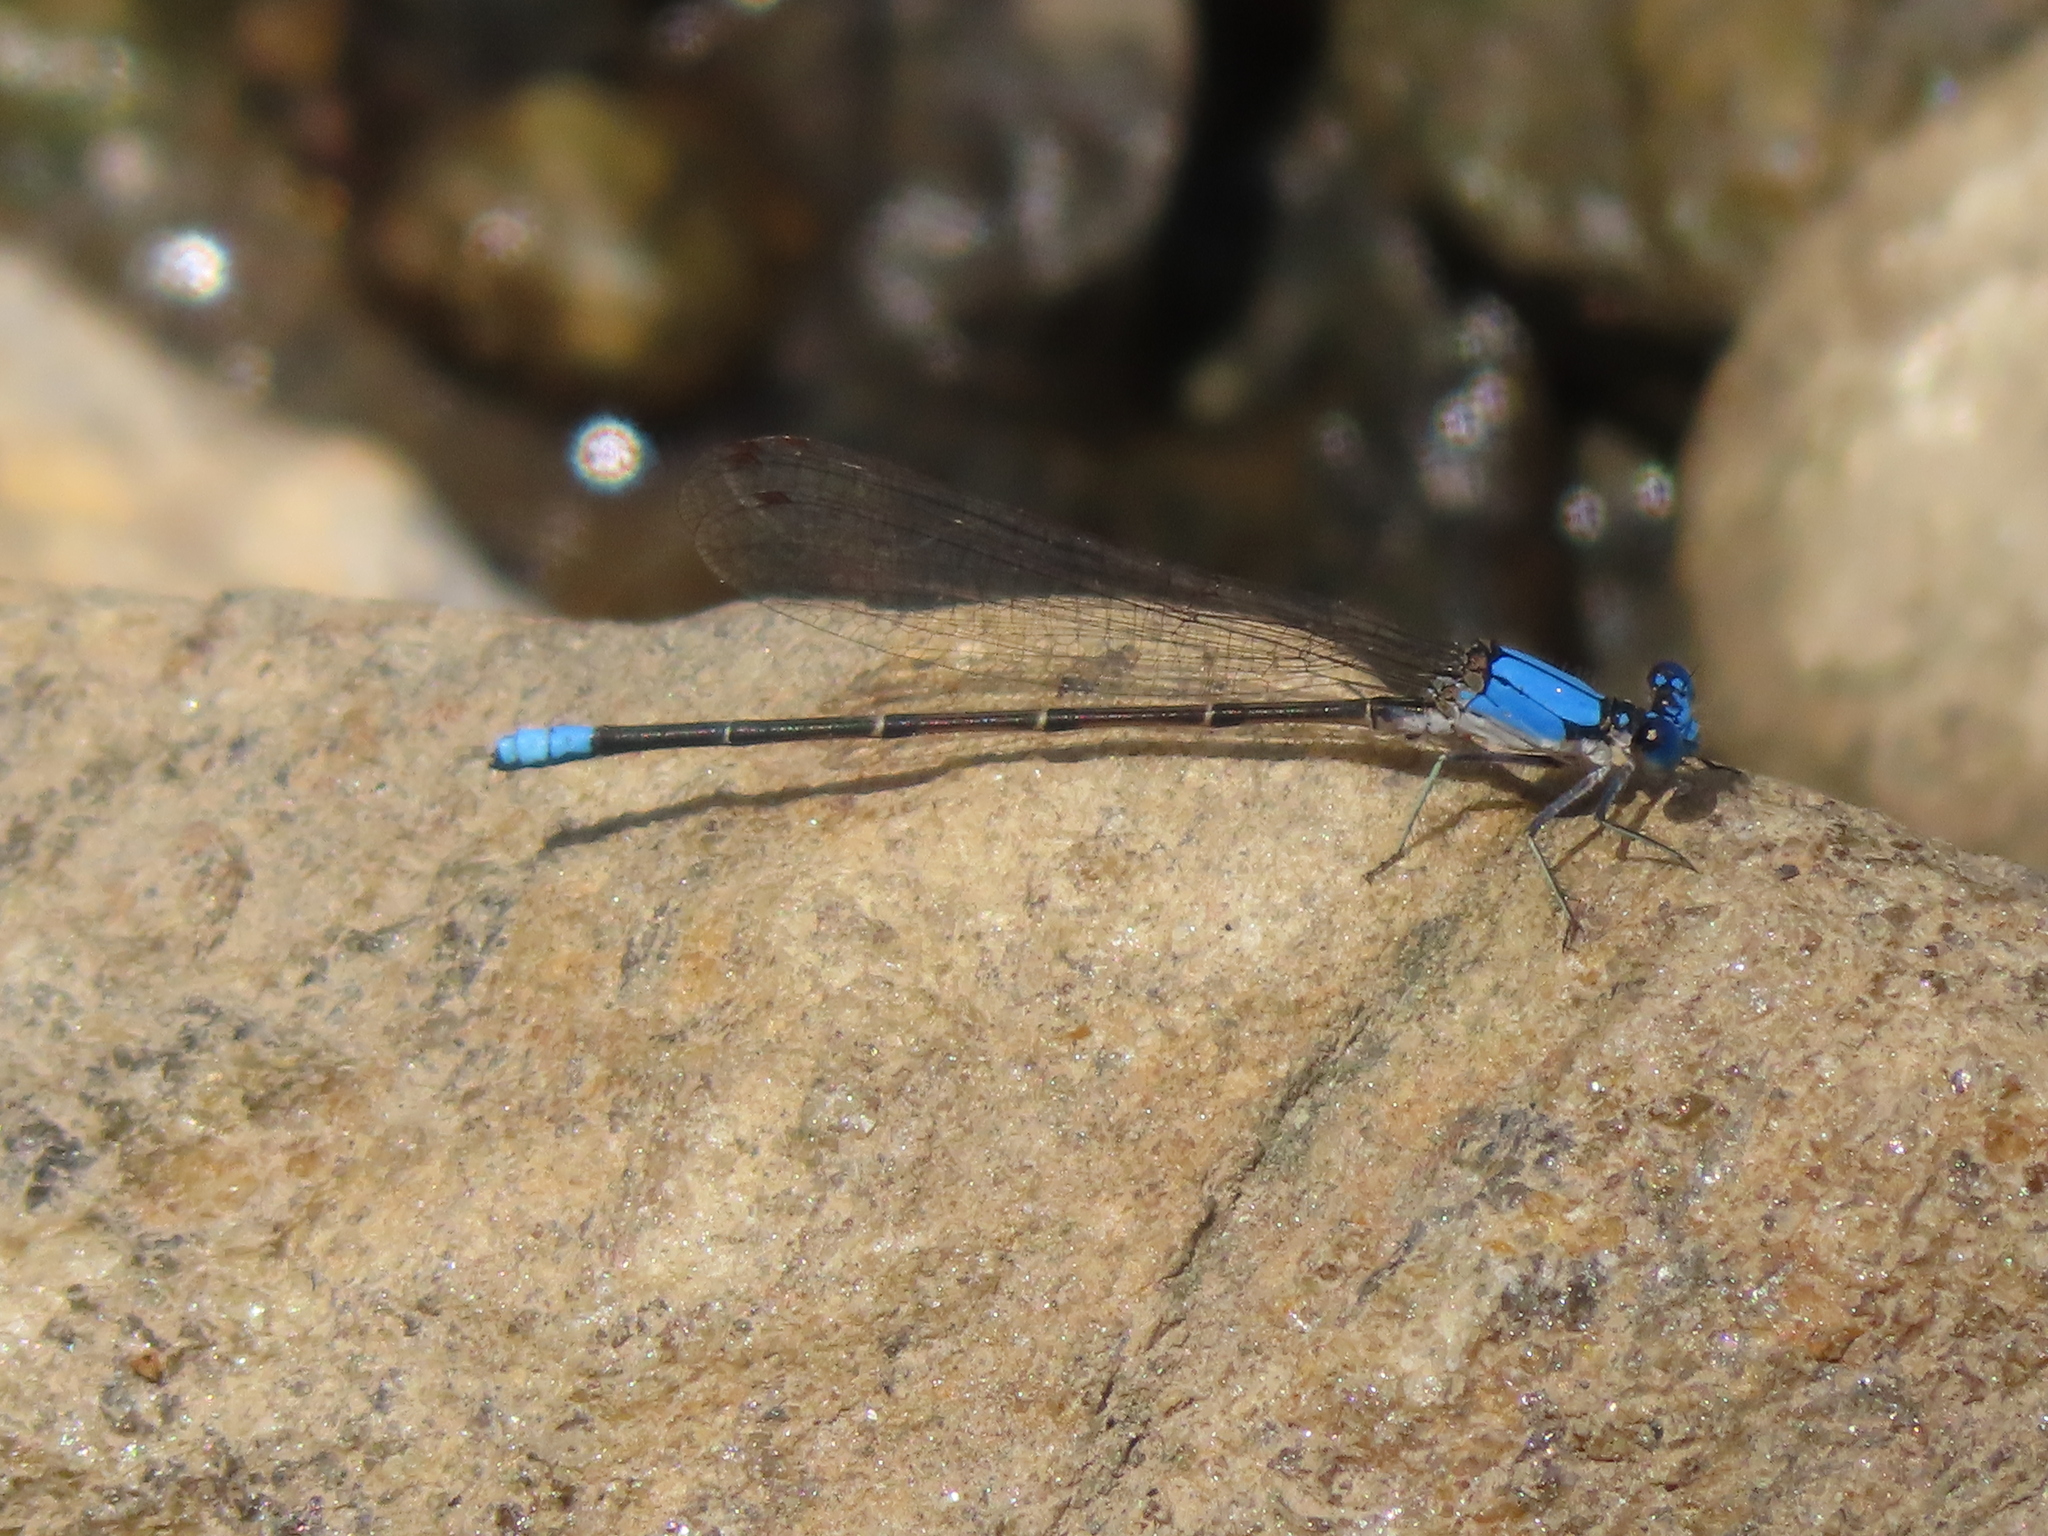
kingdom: Animalia
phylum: Arthropoda
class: Insecta
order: Odonata
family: Coenagrionidae
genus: Argia
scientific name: Argia apicalis
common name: Blue-fronted dancer
